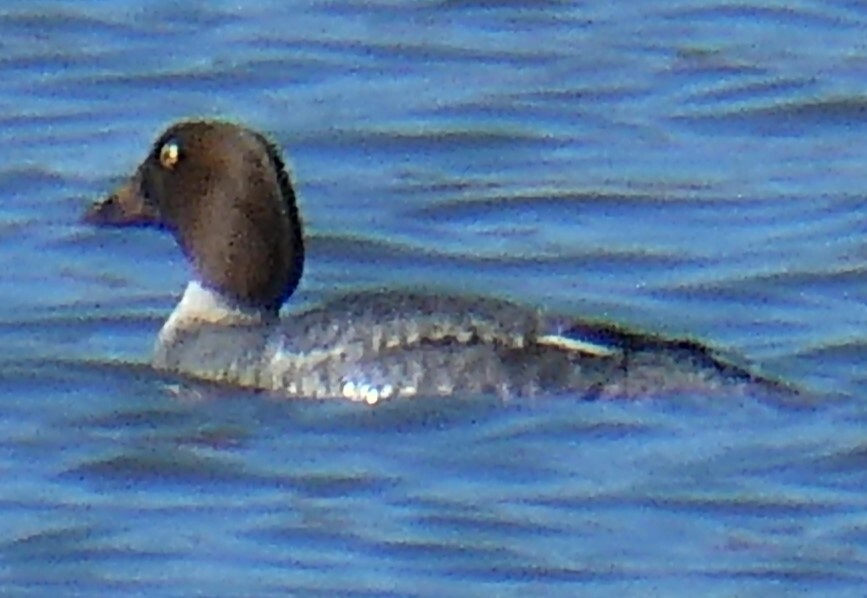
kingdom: Animalia
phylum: Chordata
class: Aves
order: Anseriformes
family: Anatidae
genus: Bucephala
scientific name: Bucephala clangula
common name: Common goldeneye
